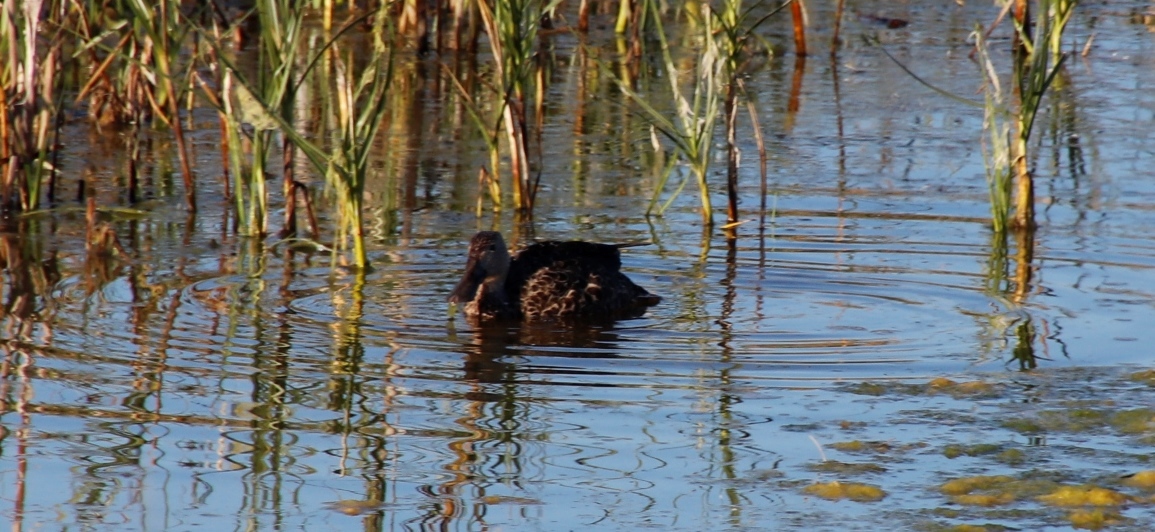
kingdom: Animalia
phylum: Chordata
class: Aves
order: Anseriformes
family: Anatidae
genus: Spatula
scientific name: Spatula smithii
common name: Cape shoveler
